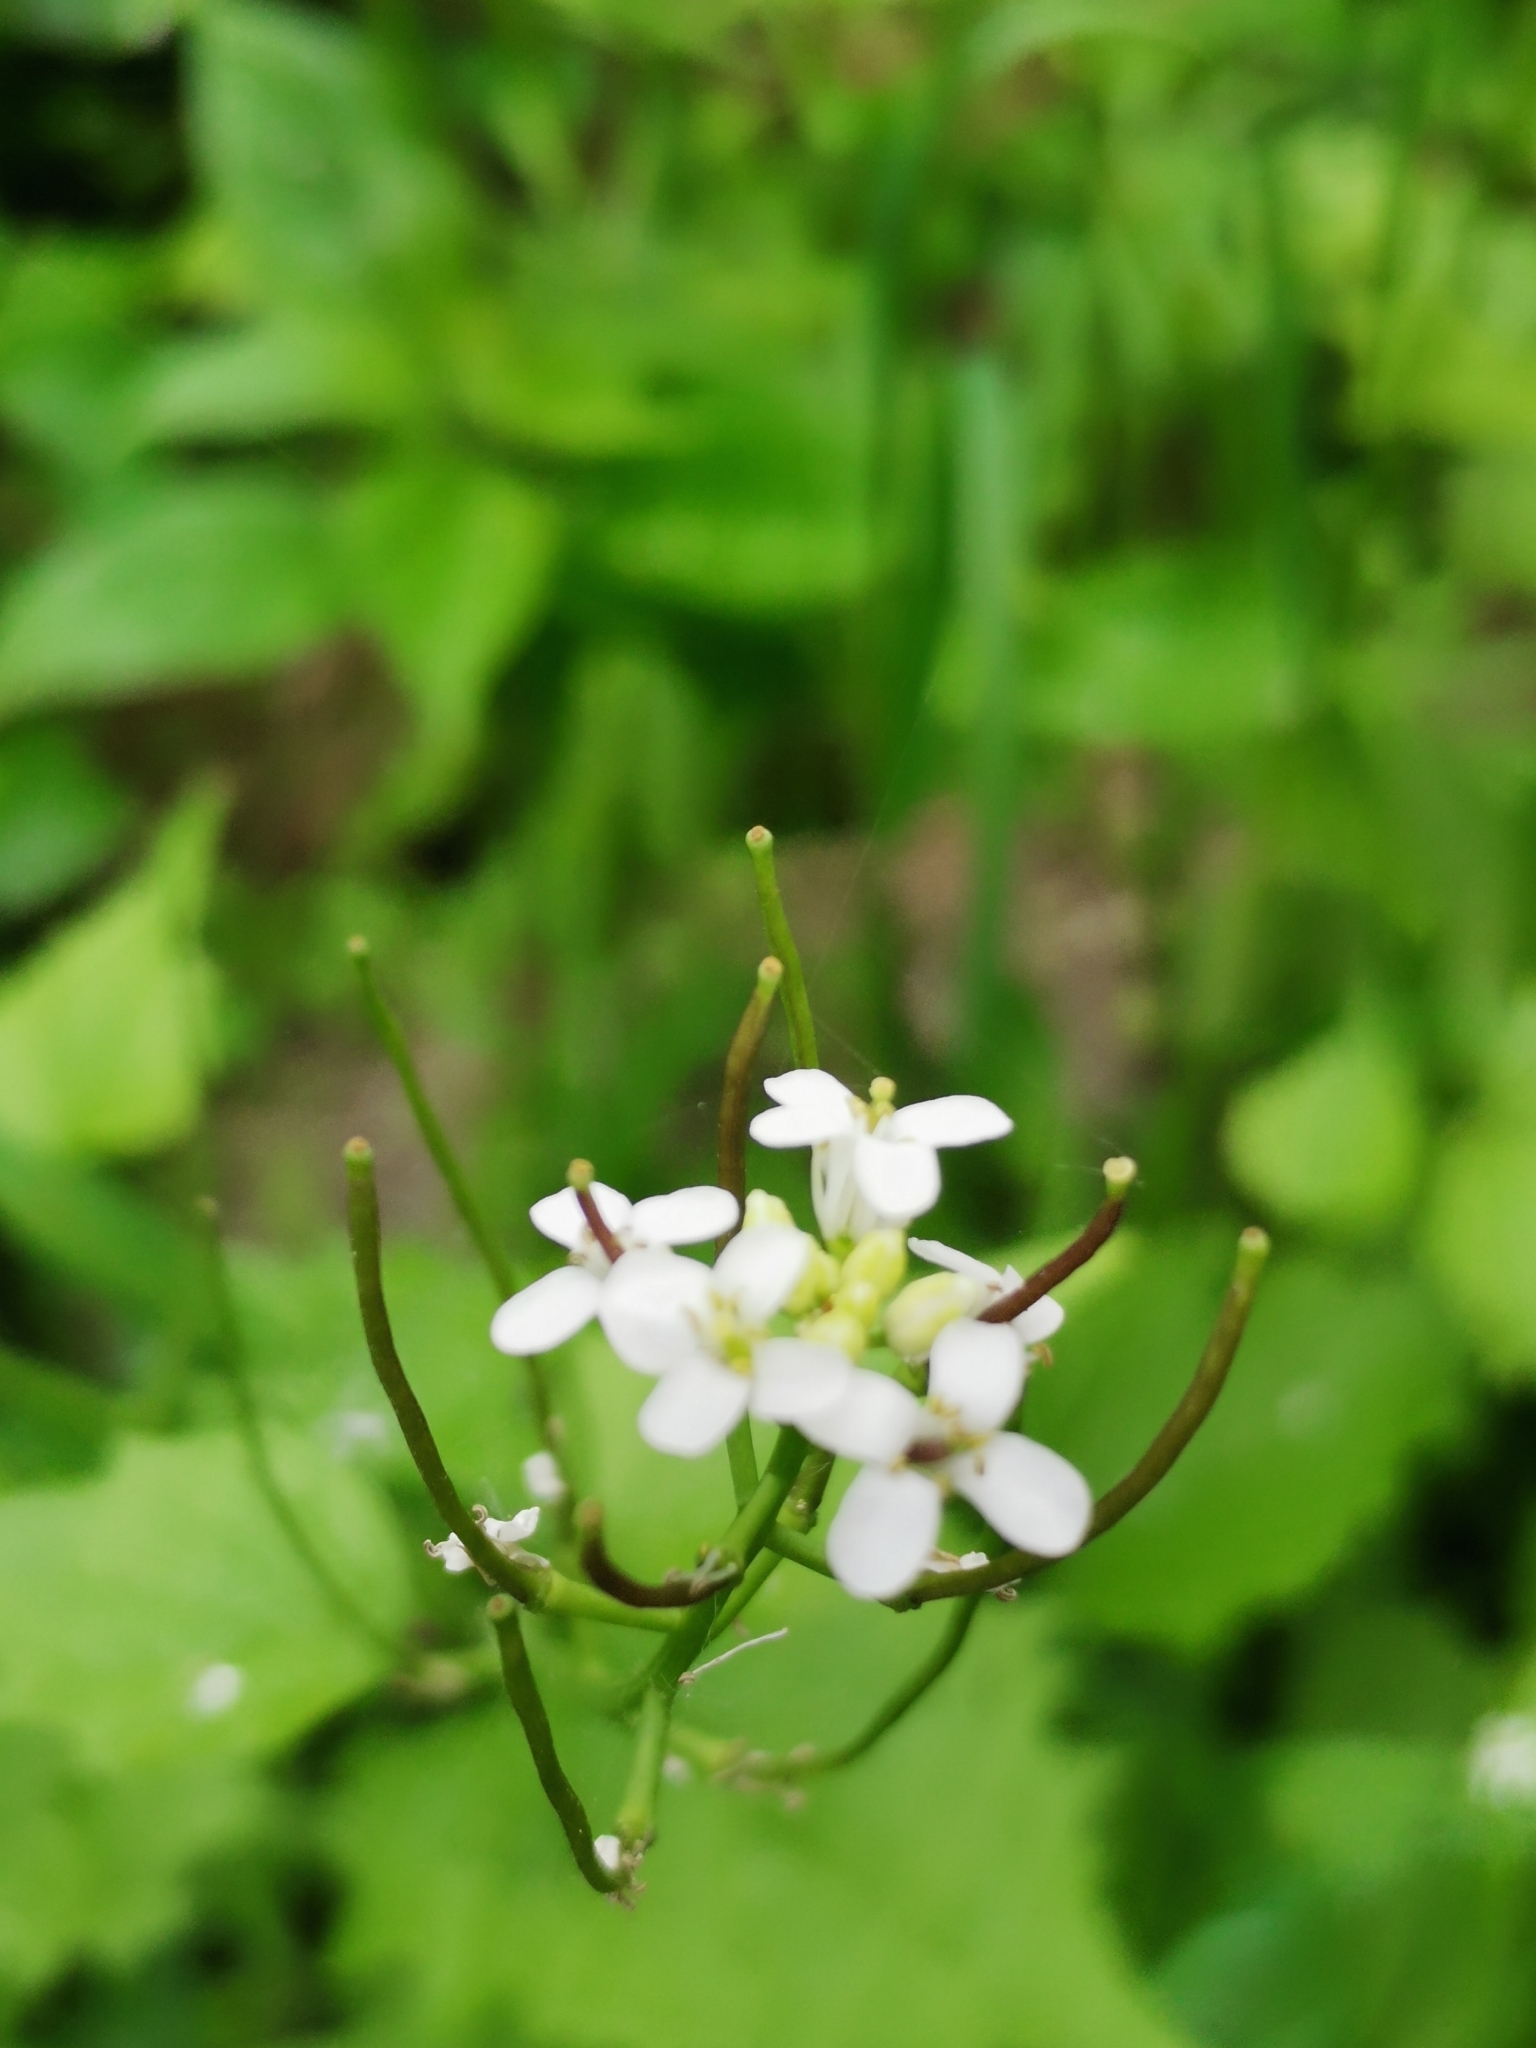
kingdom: Plantae
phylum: Tracheophyta
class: Magnoliopsida
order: Brassicales
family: Brassicaceae
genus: Alliaria
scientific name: Alliaria petiolata
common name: Garlic mustard
